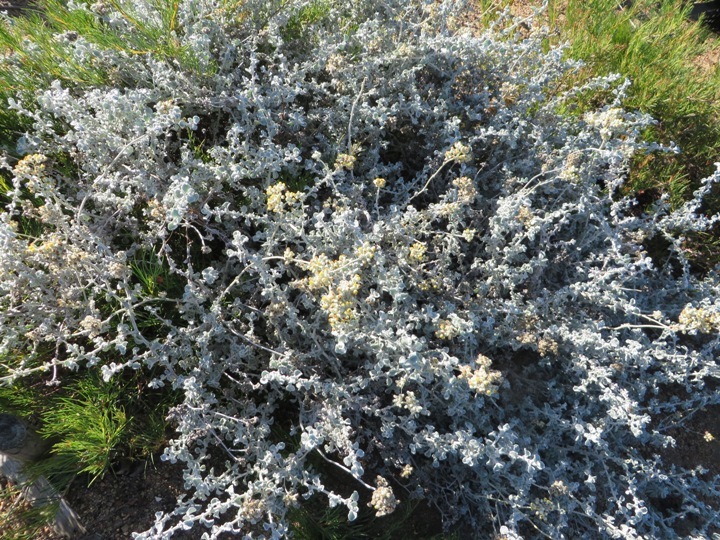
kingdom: Plantae
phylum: Tracheophyta
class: Magnoliopsida
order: Asterales
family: Asteraceae
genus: Helichrysum
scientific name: Helichrysum pandurifolium
